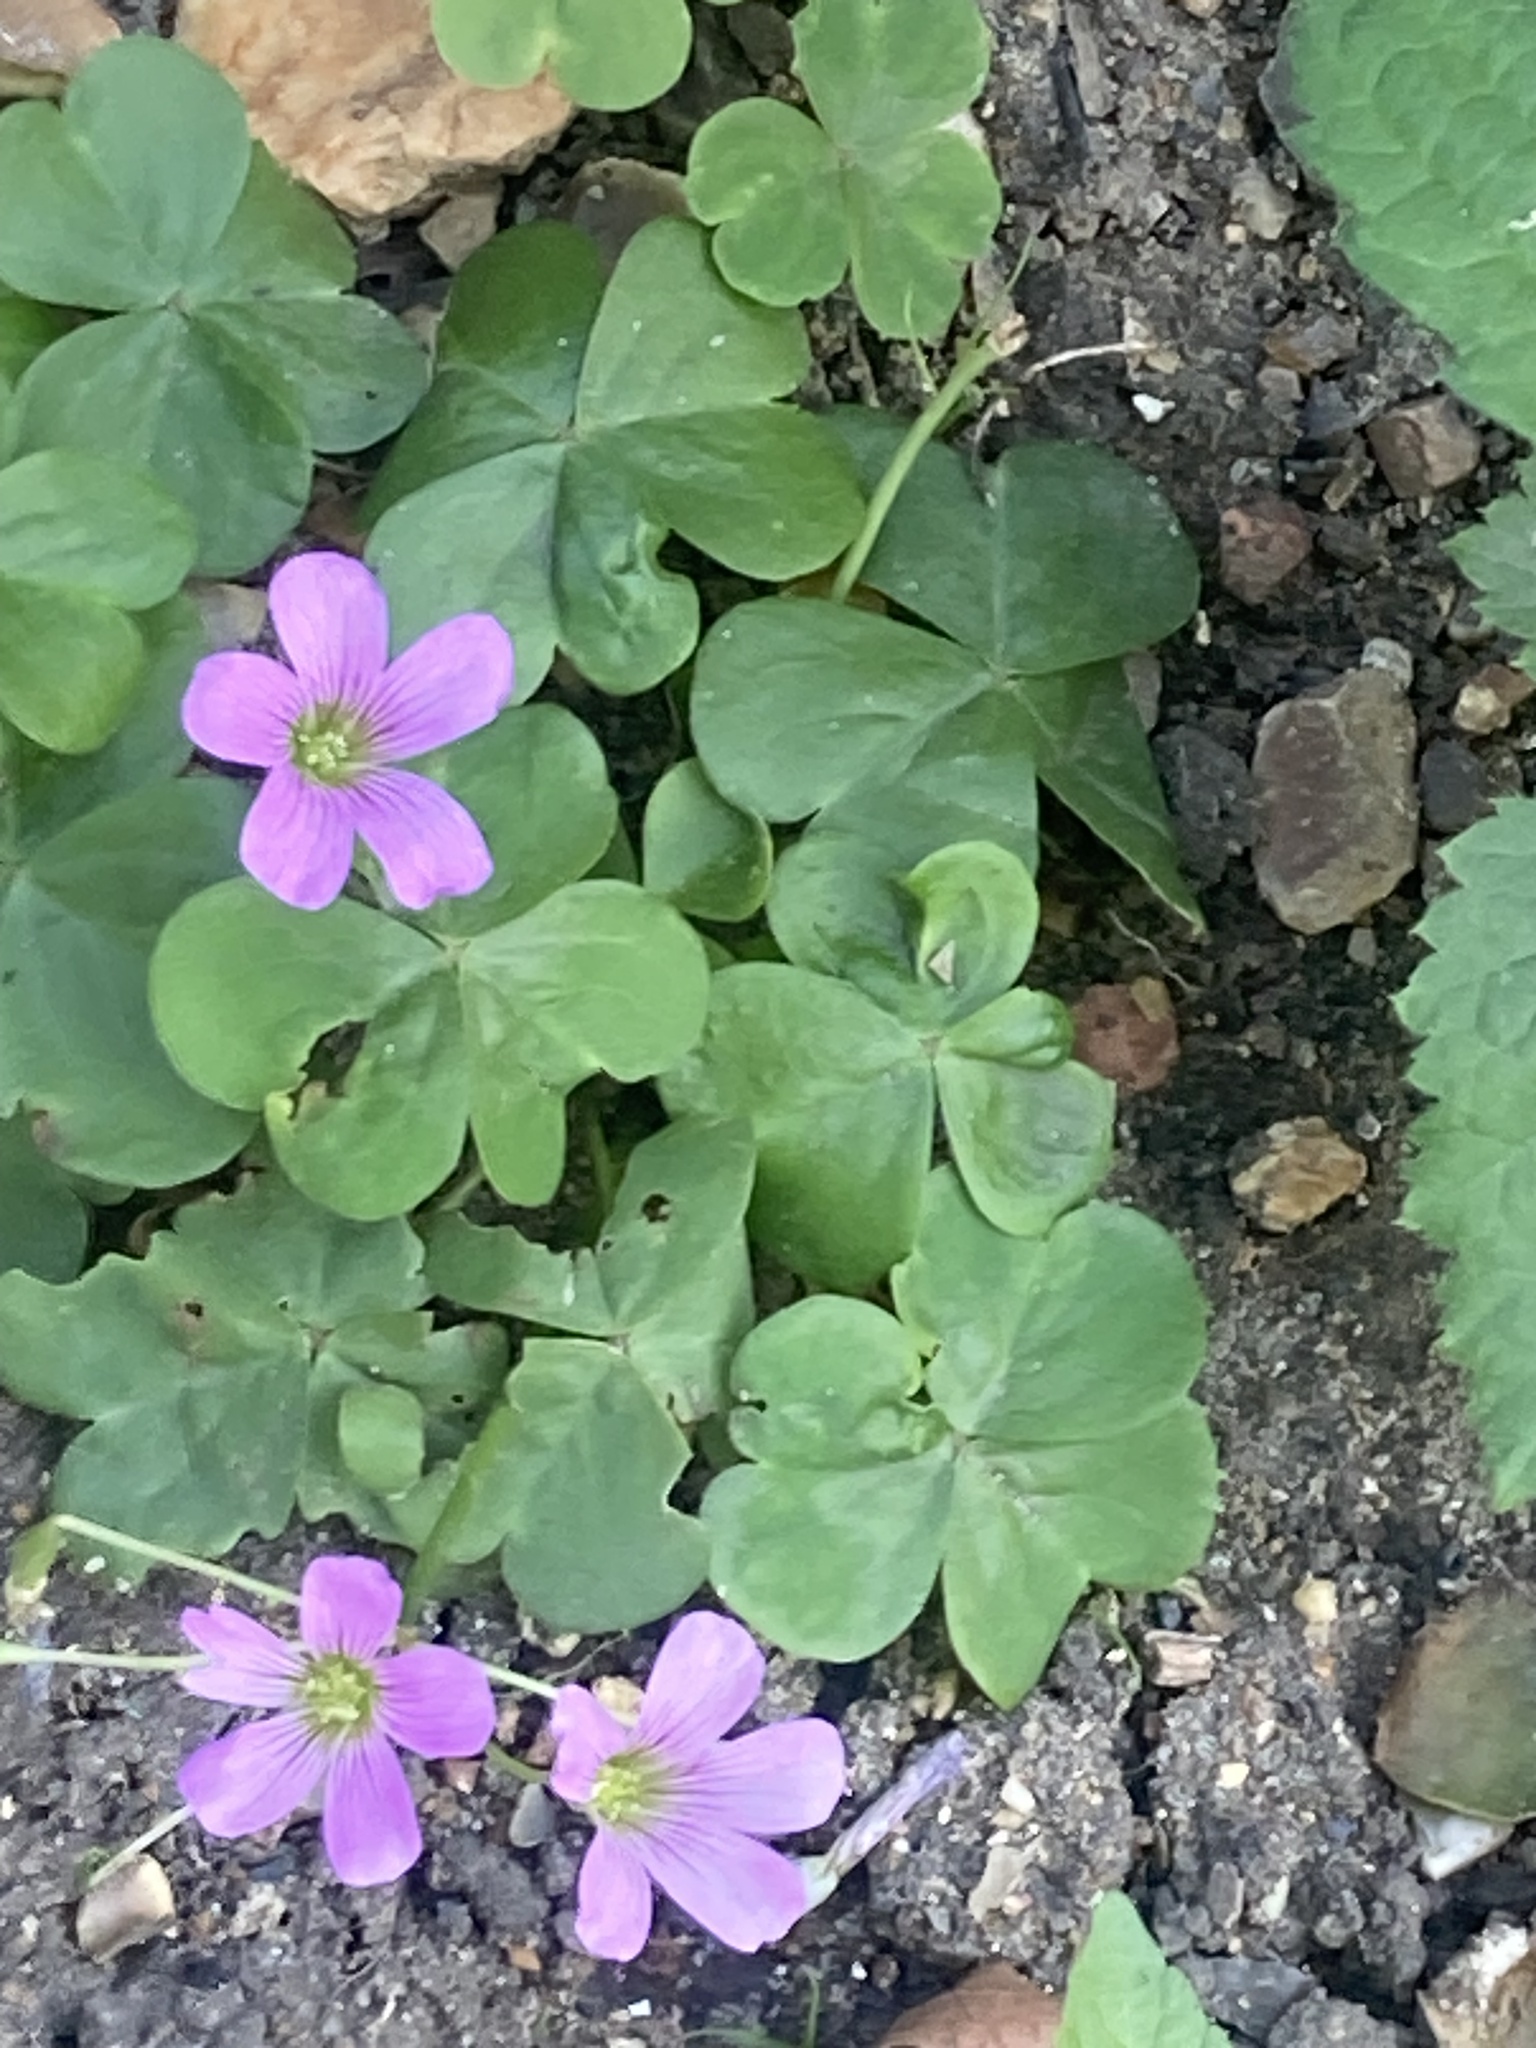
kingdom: Plantae
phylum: Tracheophyta
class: Magnoliopsida
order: Oxalidales
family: Oxalidaceae
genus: Oxalis
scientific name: Oxalis debilis
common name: Large-flowered pink-sorrel
